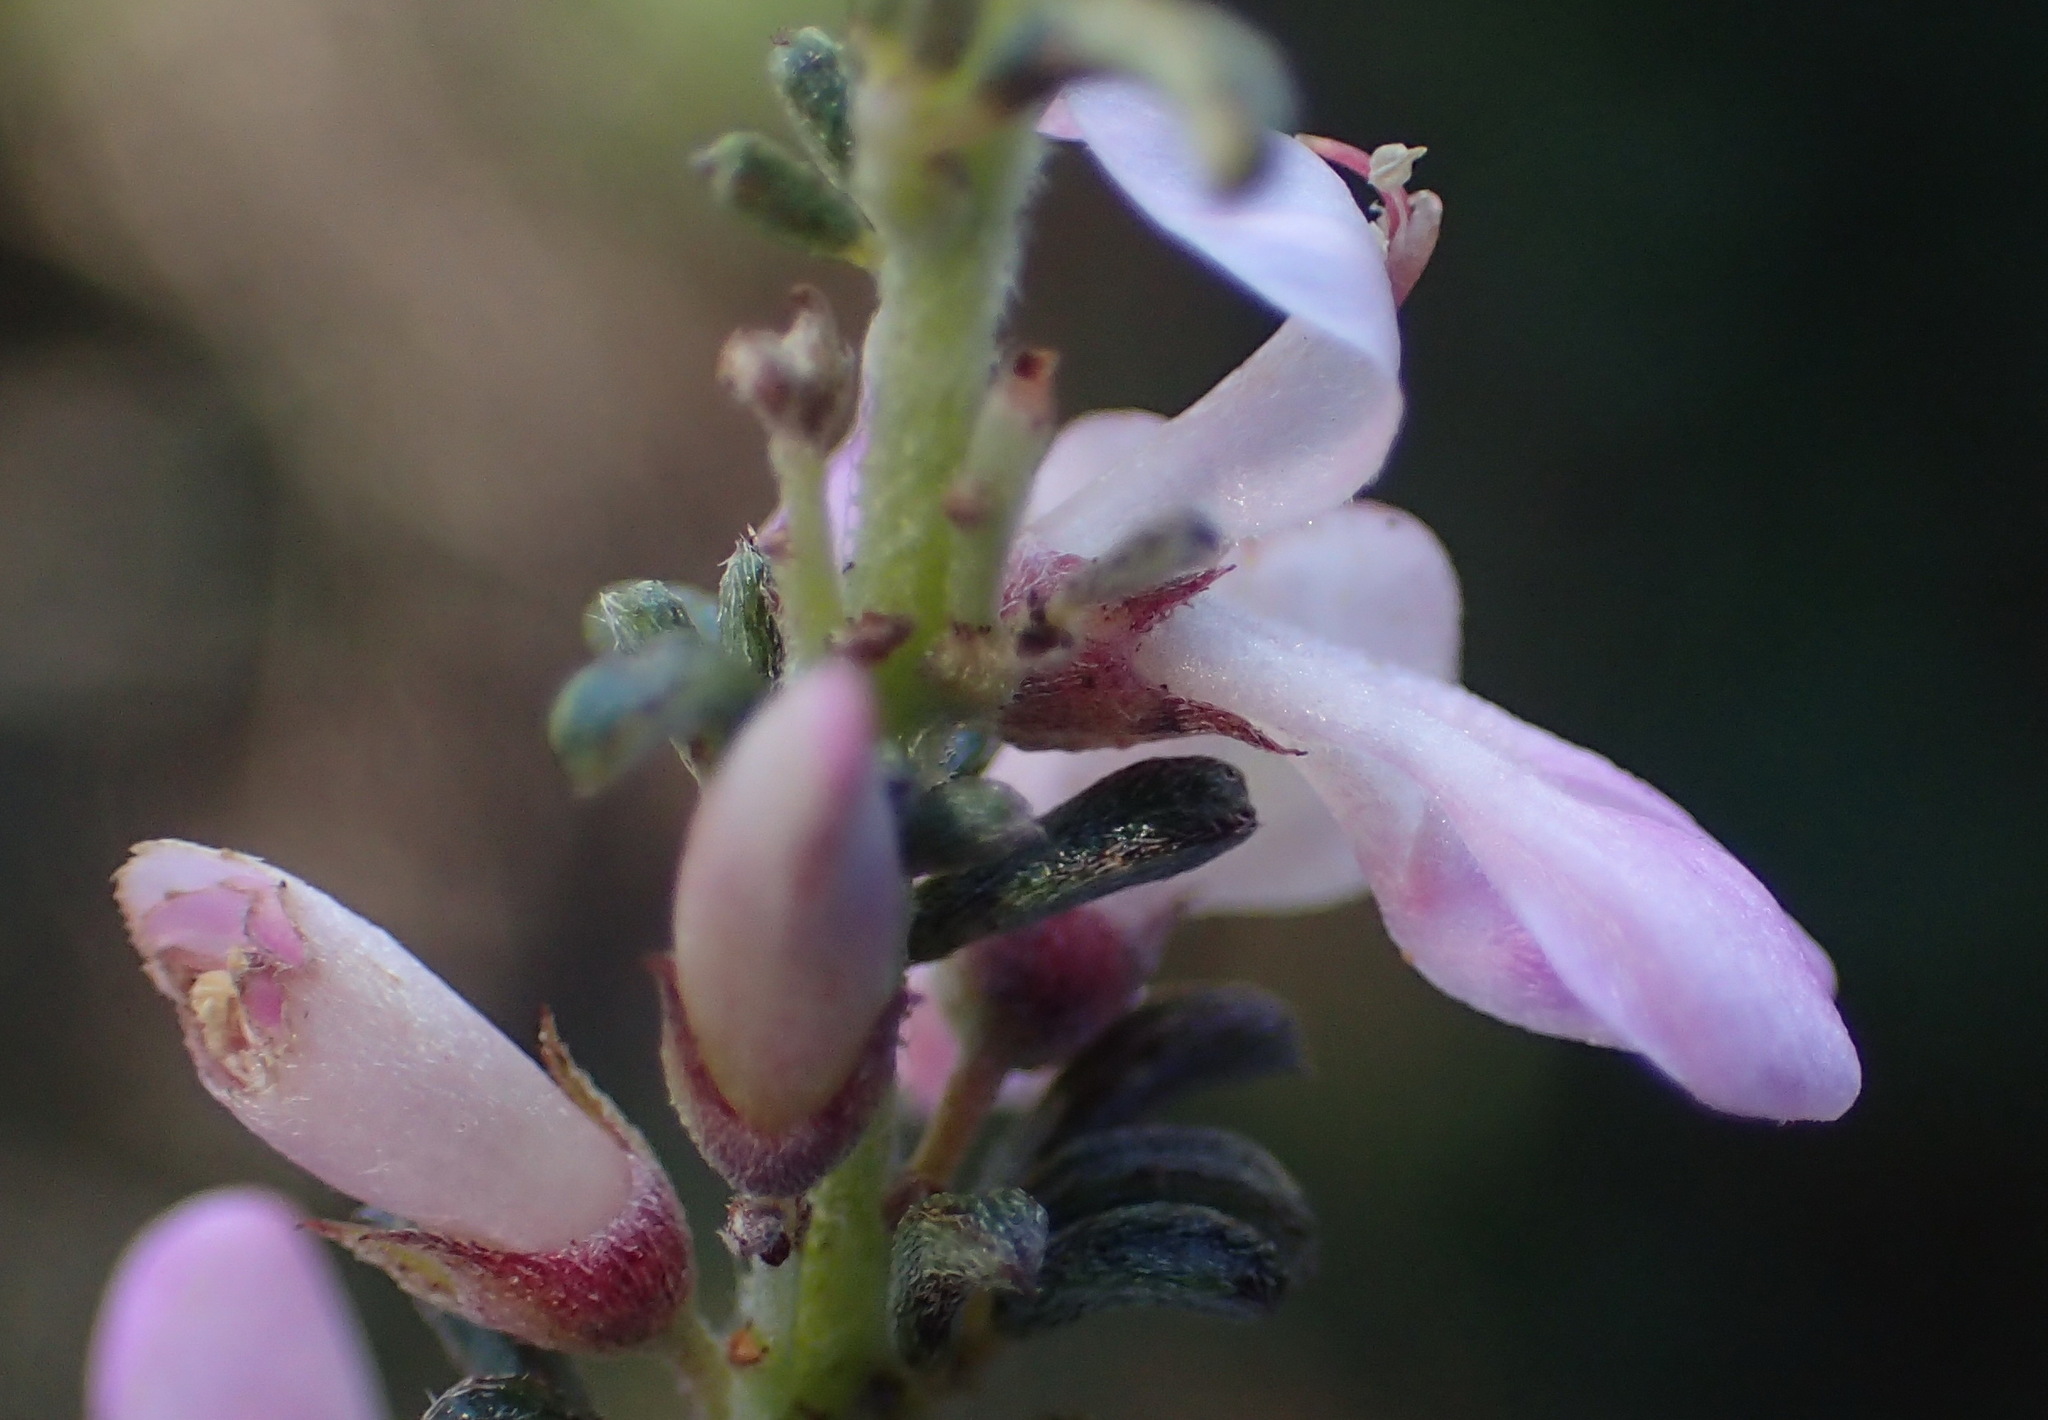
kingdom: Plantae
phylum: Tracheophyta
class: Magnoliopsida
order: Fabales
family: Fabaceae
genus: Indigofera
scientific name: Indigofera pappei
